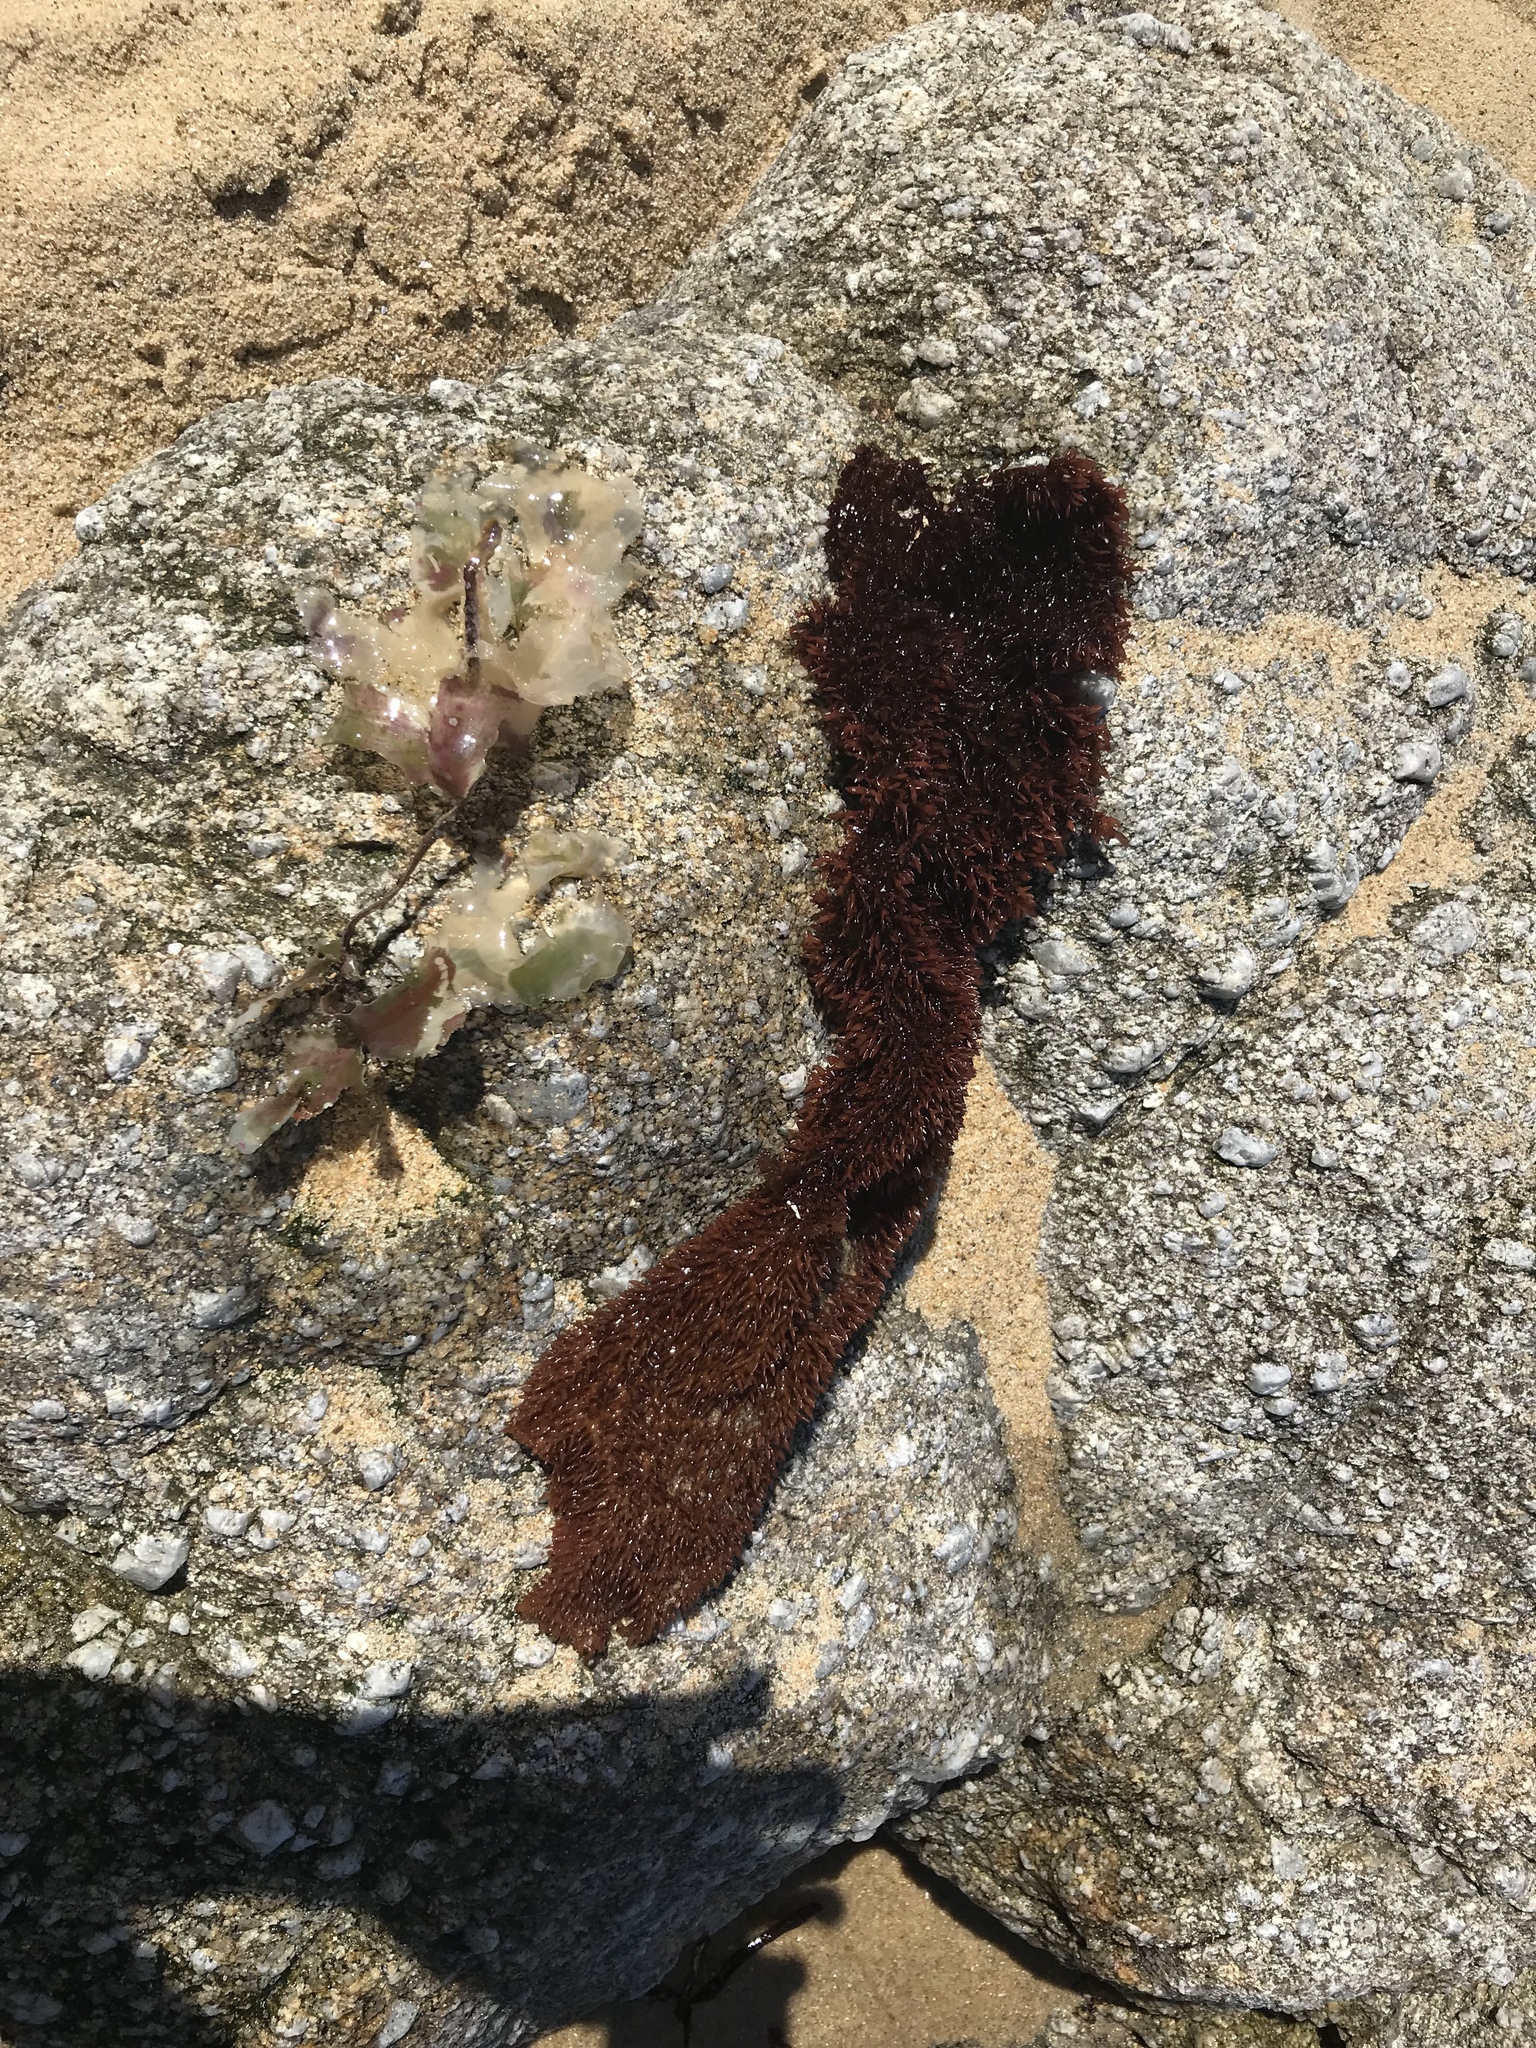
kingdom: Plantae
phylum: Rhodophyta
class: Florideophyceae
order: Gigartinales
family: Gigartinaceae
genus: Chondracanthus
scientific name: Chondracanthus exasperatus
